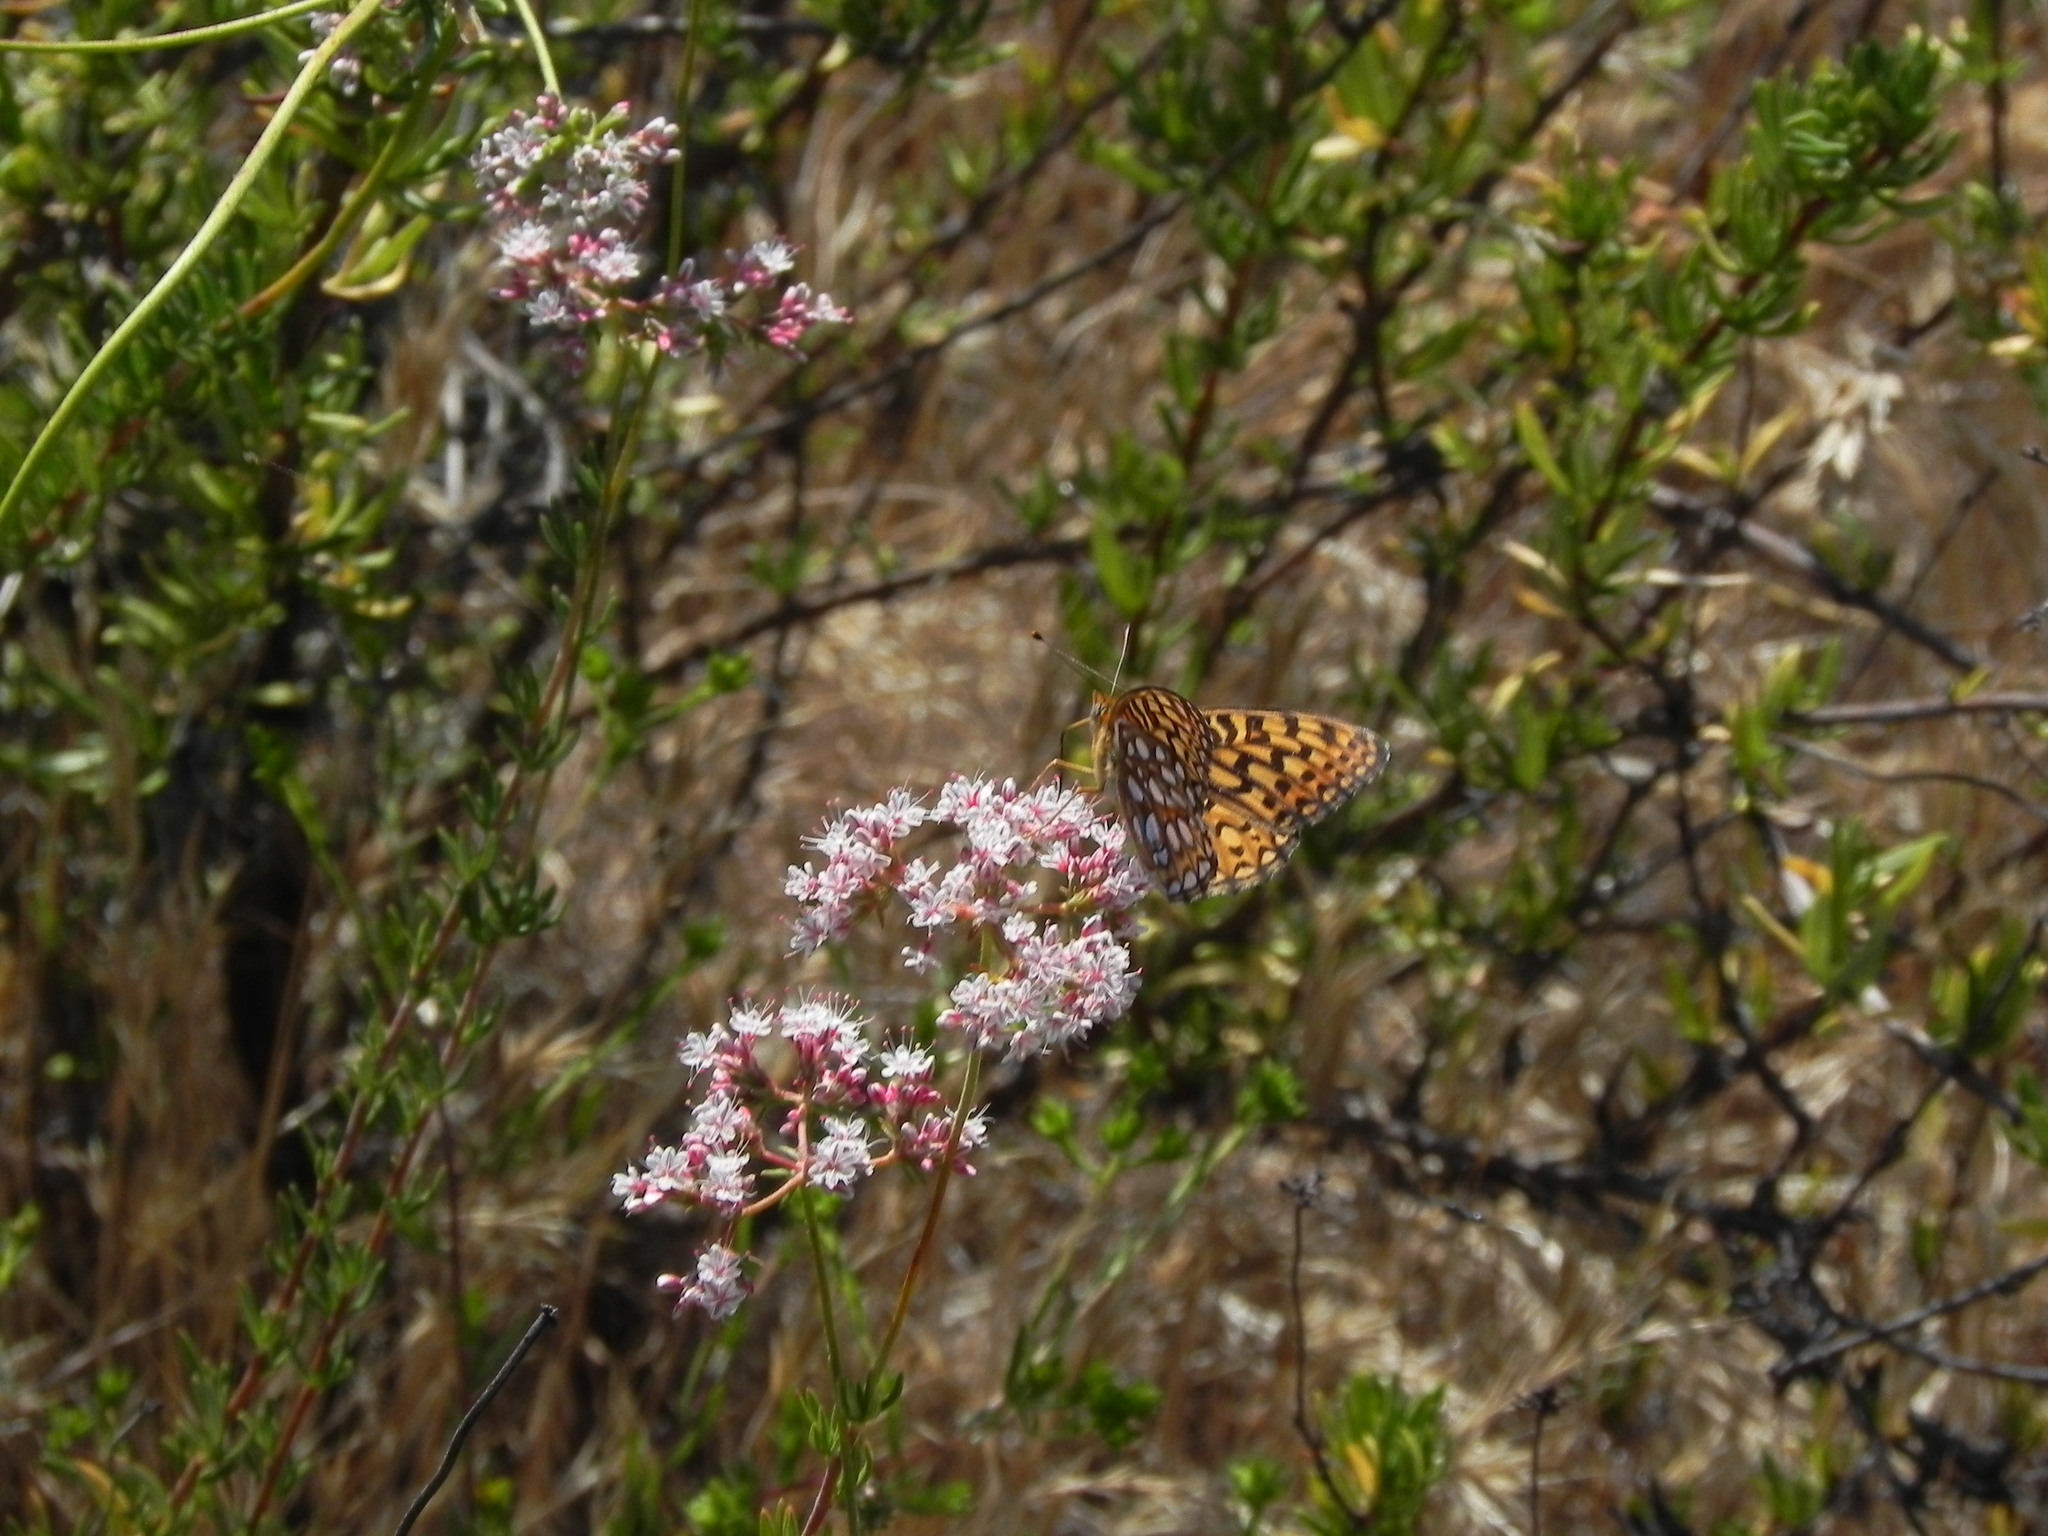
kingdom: Animalia
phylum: Arthropoda
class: Insecta
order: Lepidoptera
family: Nymphalidae
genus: Speyeria
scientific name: Speyeria callippe
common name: Callippe fritillary
